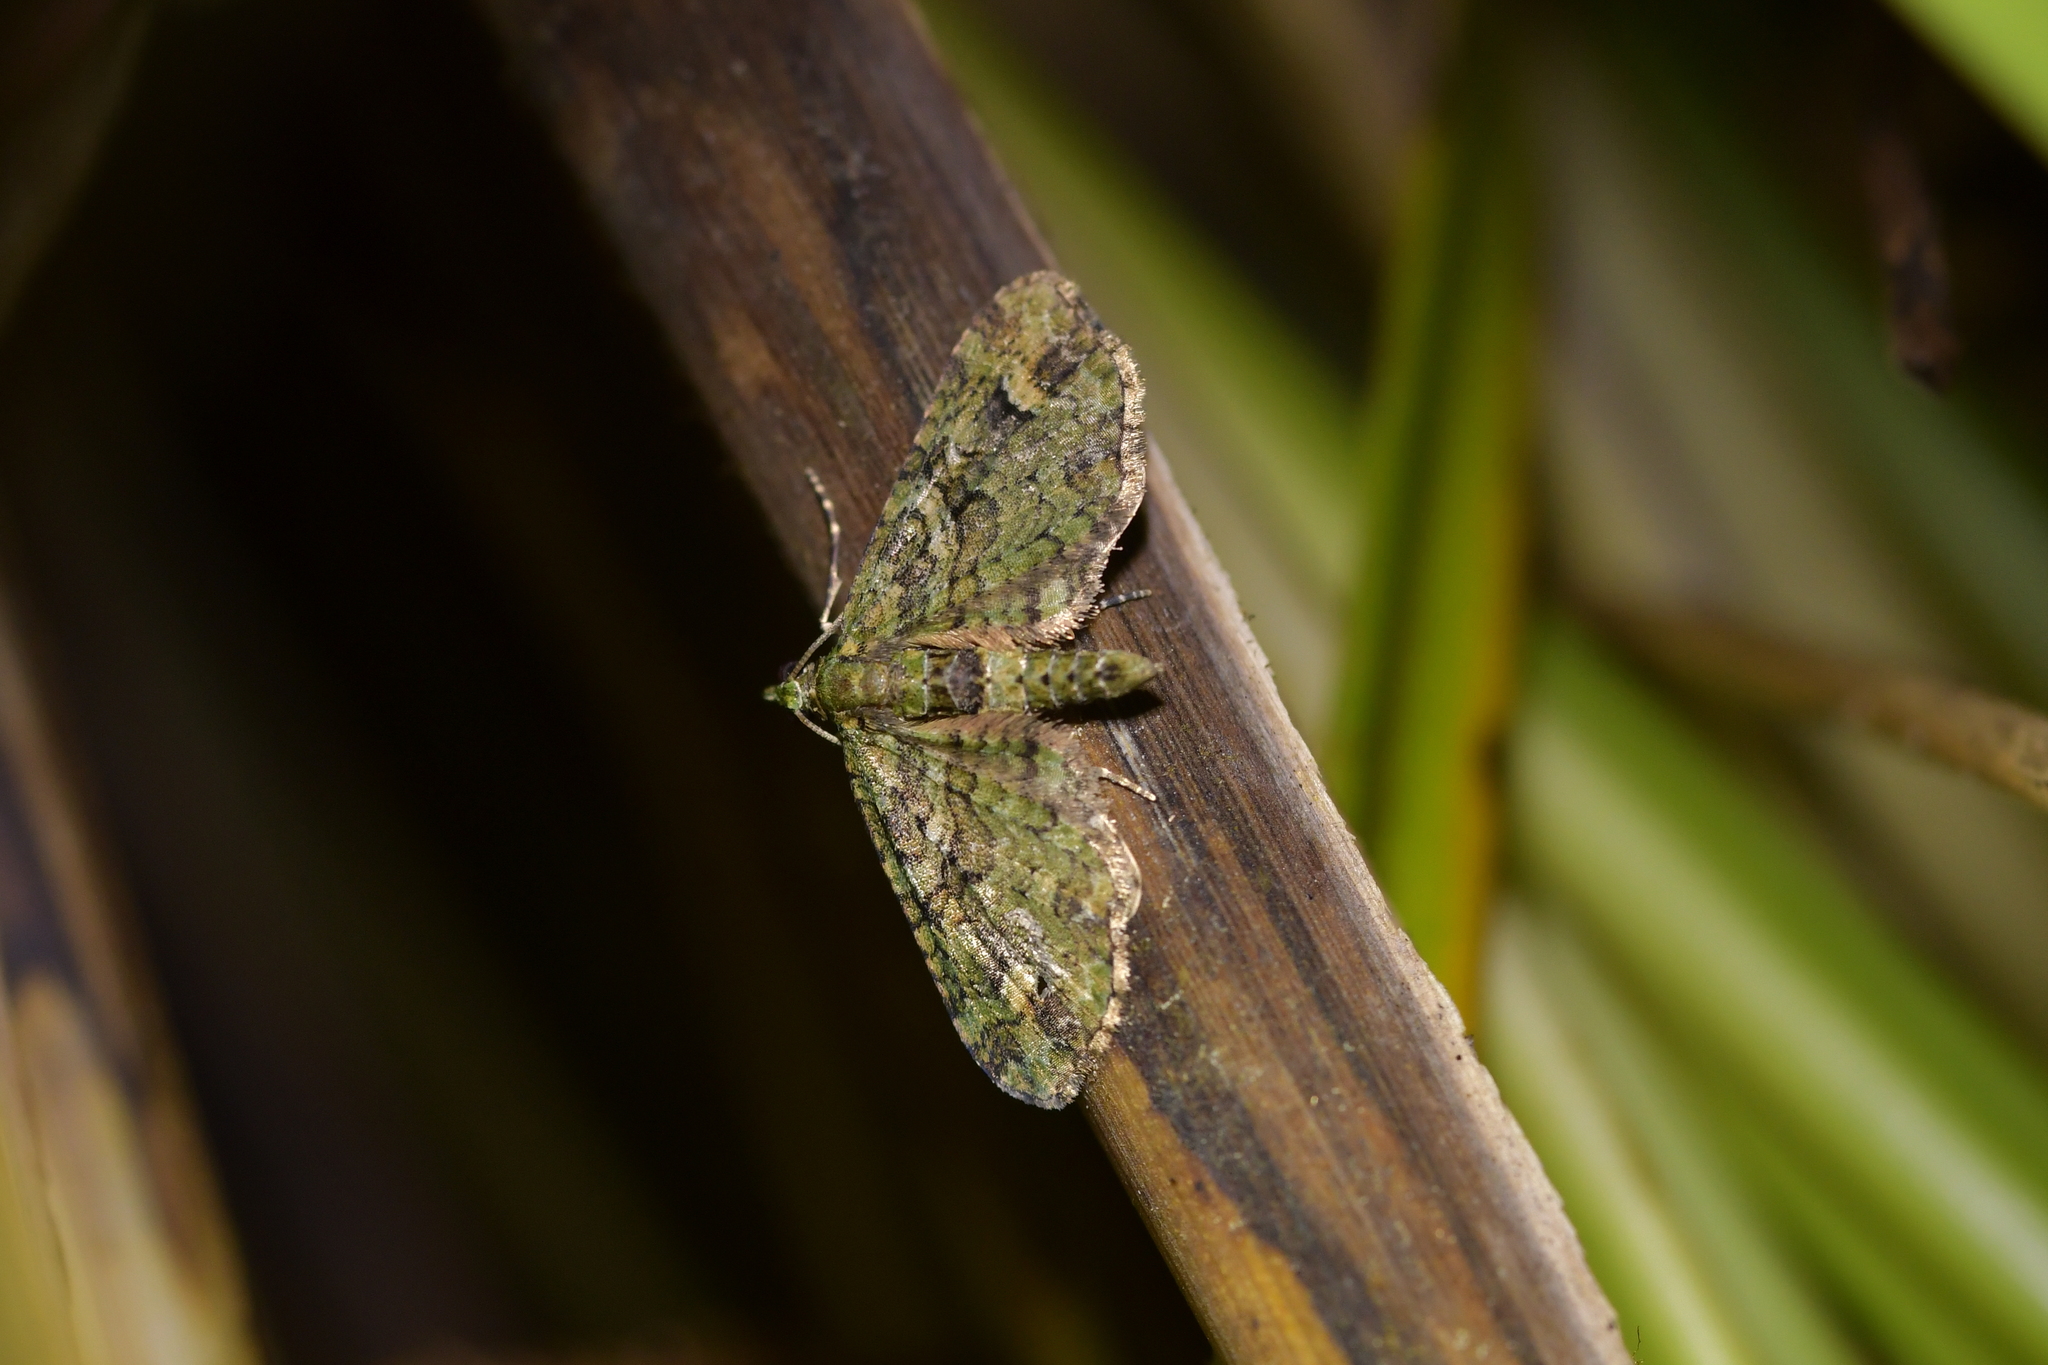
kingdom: Animalia
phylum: Arthropoda
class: Insecta
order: Lepidoptera
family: Geometridae
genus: Idaea
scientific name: Idaea mutanda
